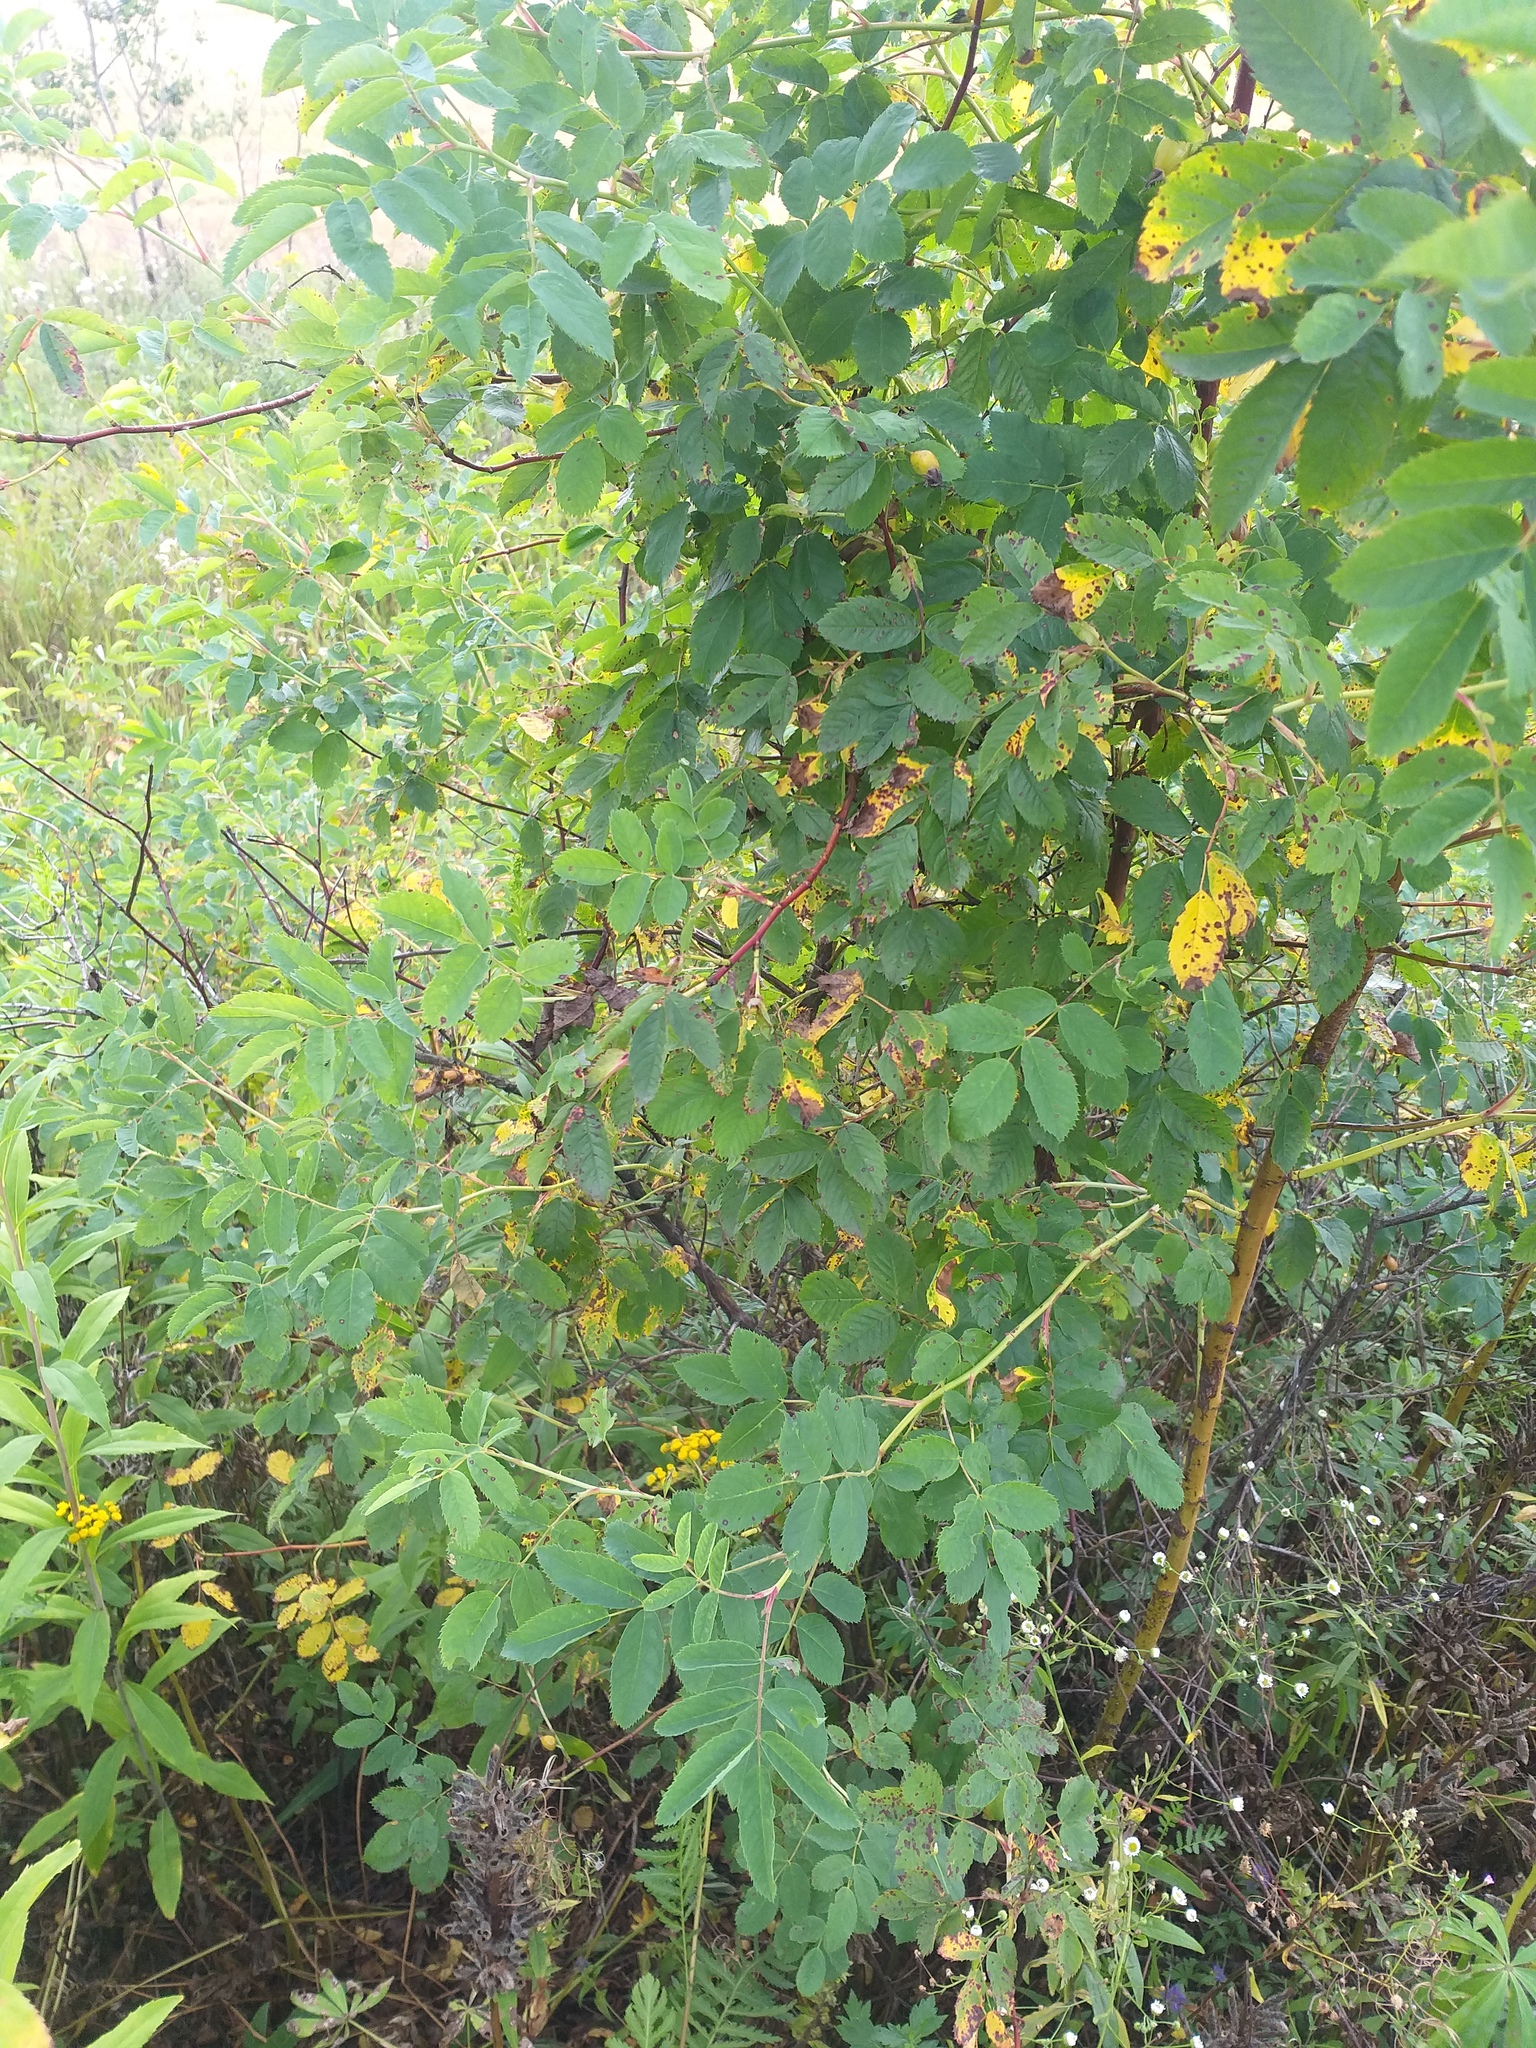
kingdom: Plantae
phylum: Tracheophyta
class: Magnoliopsida
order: Rosales
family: Rosaceae
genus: Rosa
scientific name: Rosa viarum
